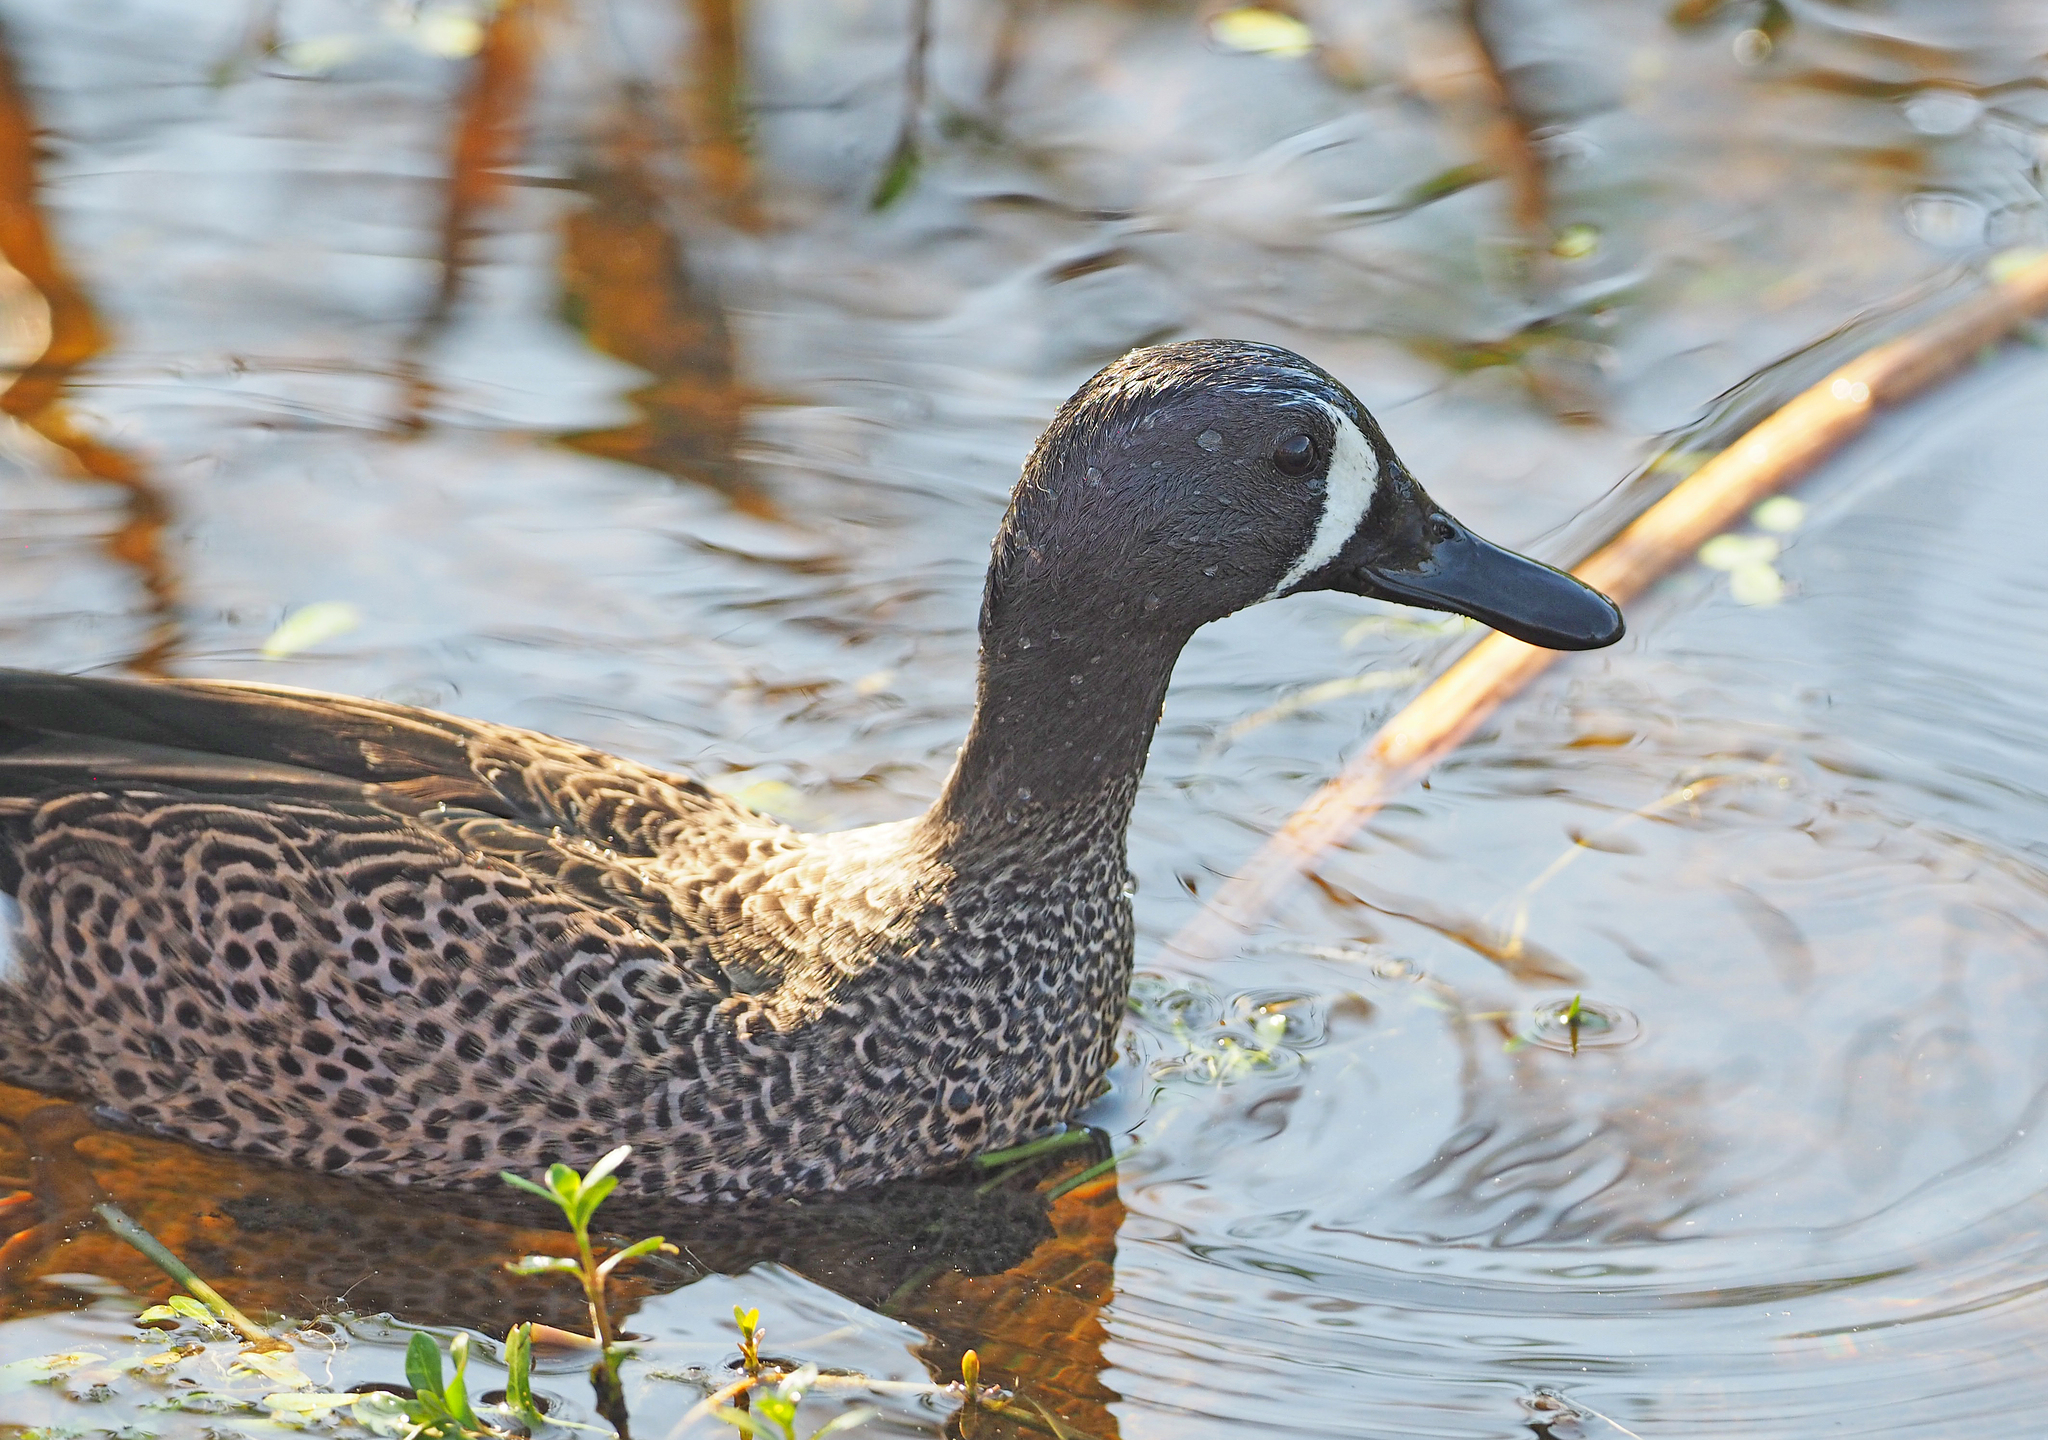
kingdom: Animalia
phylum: Chordata
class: Aves
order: Anseriformes
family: Anatidae
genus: Spatula
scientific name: Spatula discors
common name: Blue-winged teal
